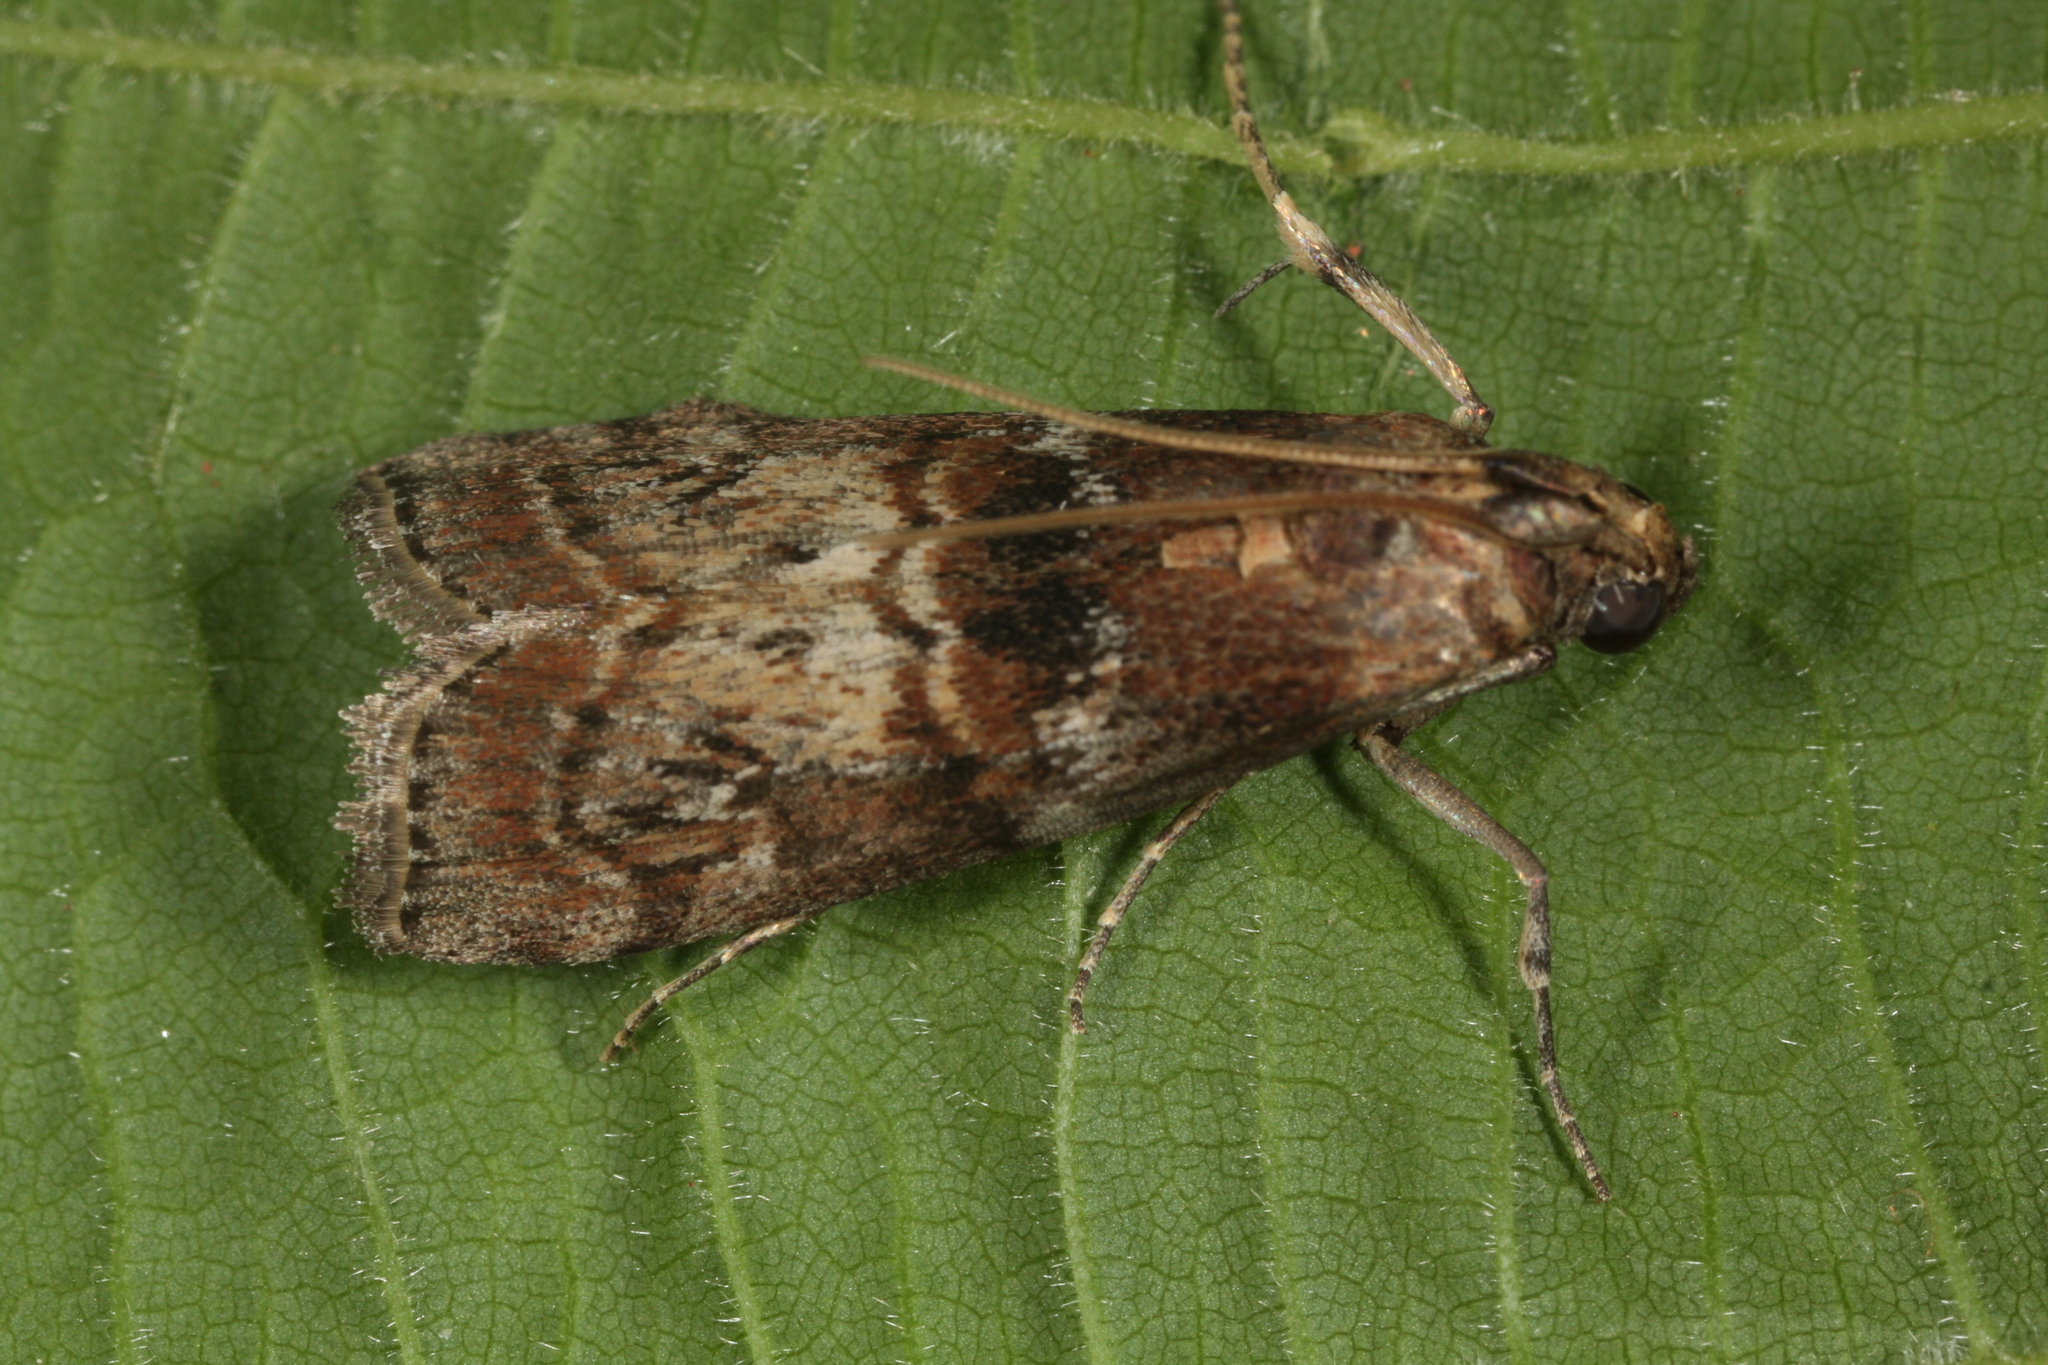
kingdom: Animalia
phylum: Arthropoda
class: Insecta
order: Lepidoptera
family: Pyralidae
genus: Phycita
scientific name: Phycita roborella
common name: Dotted oak knot-horn
